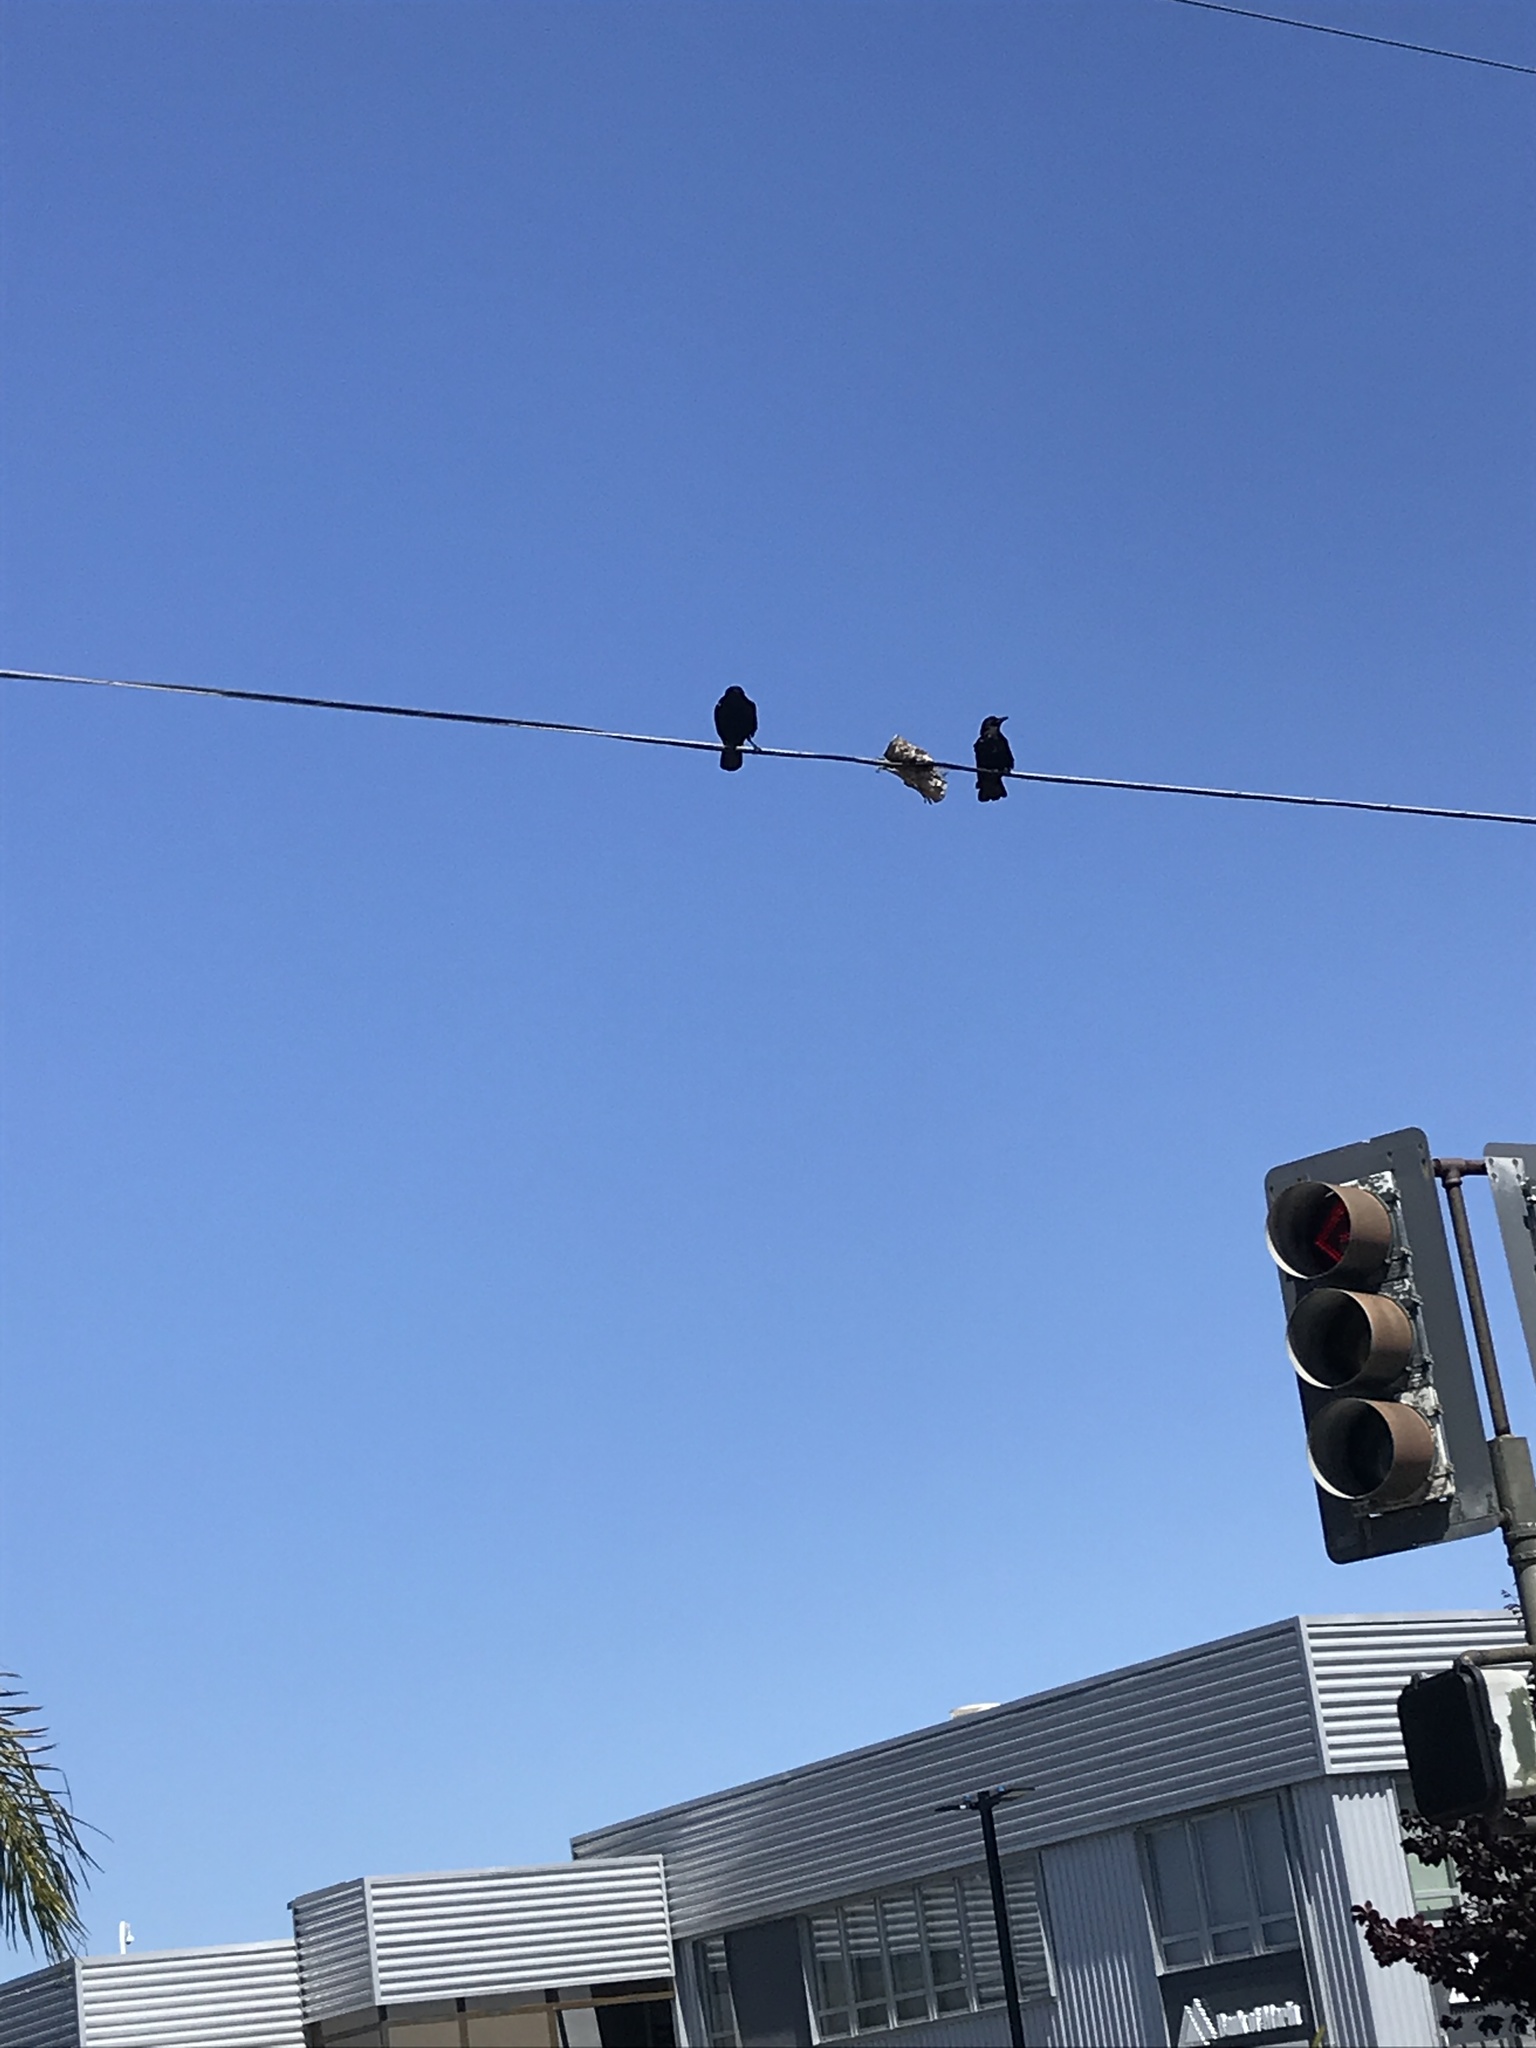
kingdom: Animalia
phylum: Chordata
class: Aves
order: Passeriformes
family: Corvidae
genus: Corvus
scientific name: Corvus brachyrhynchos
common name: American crow
